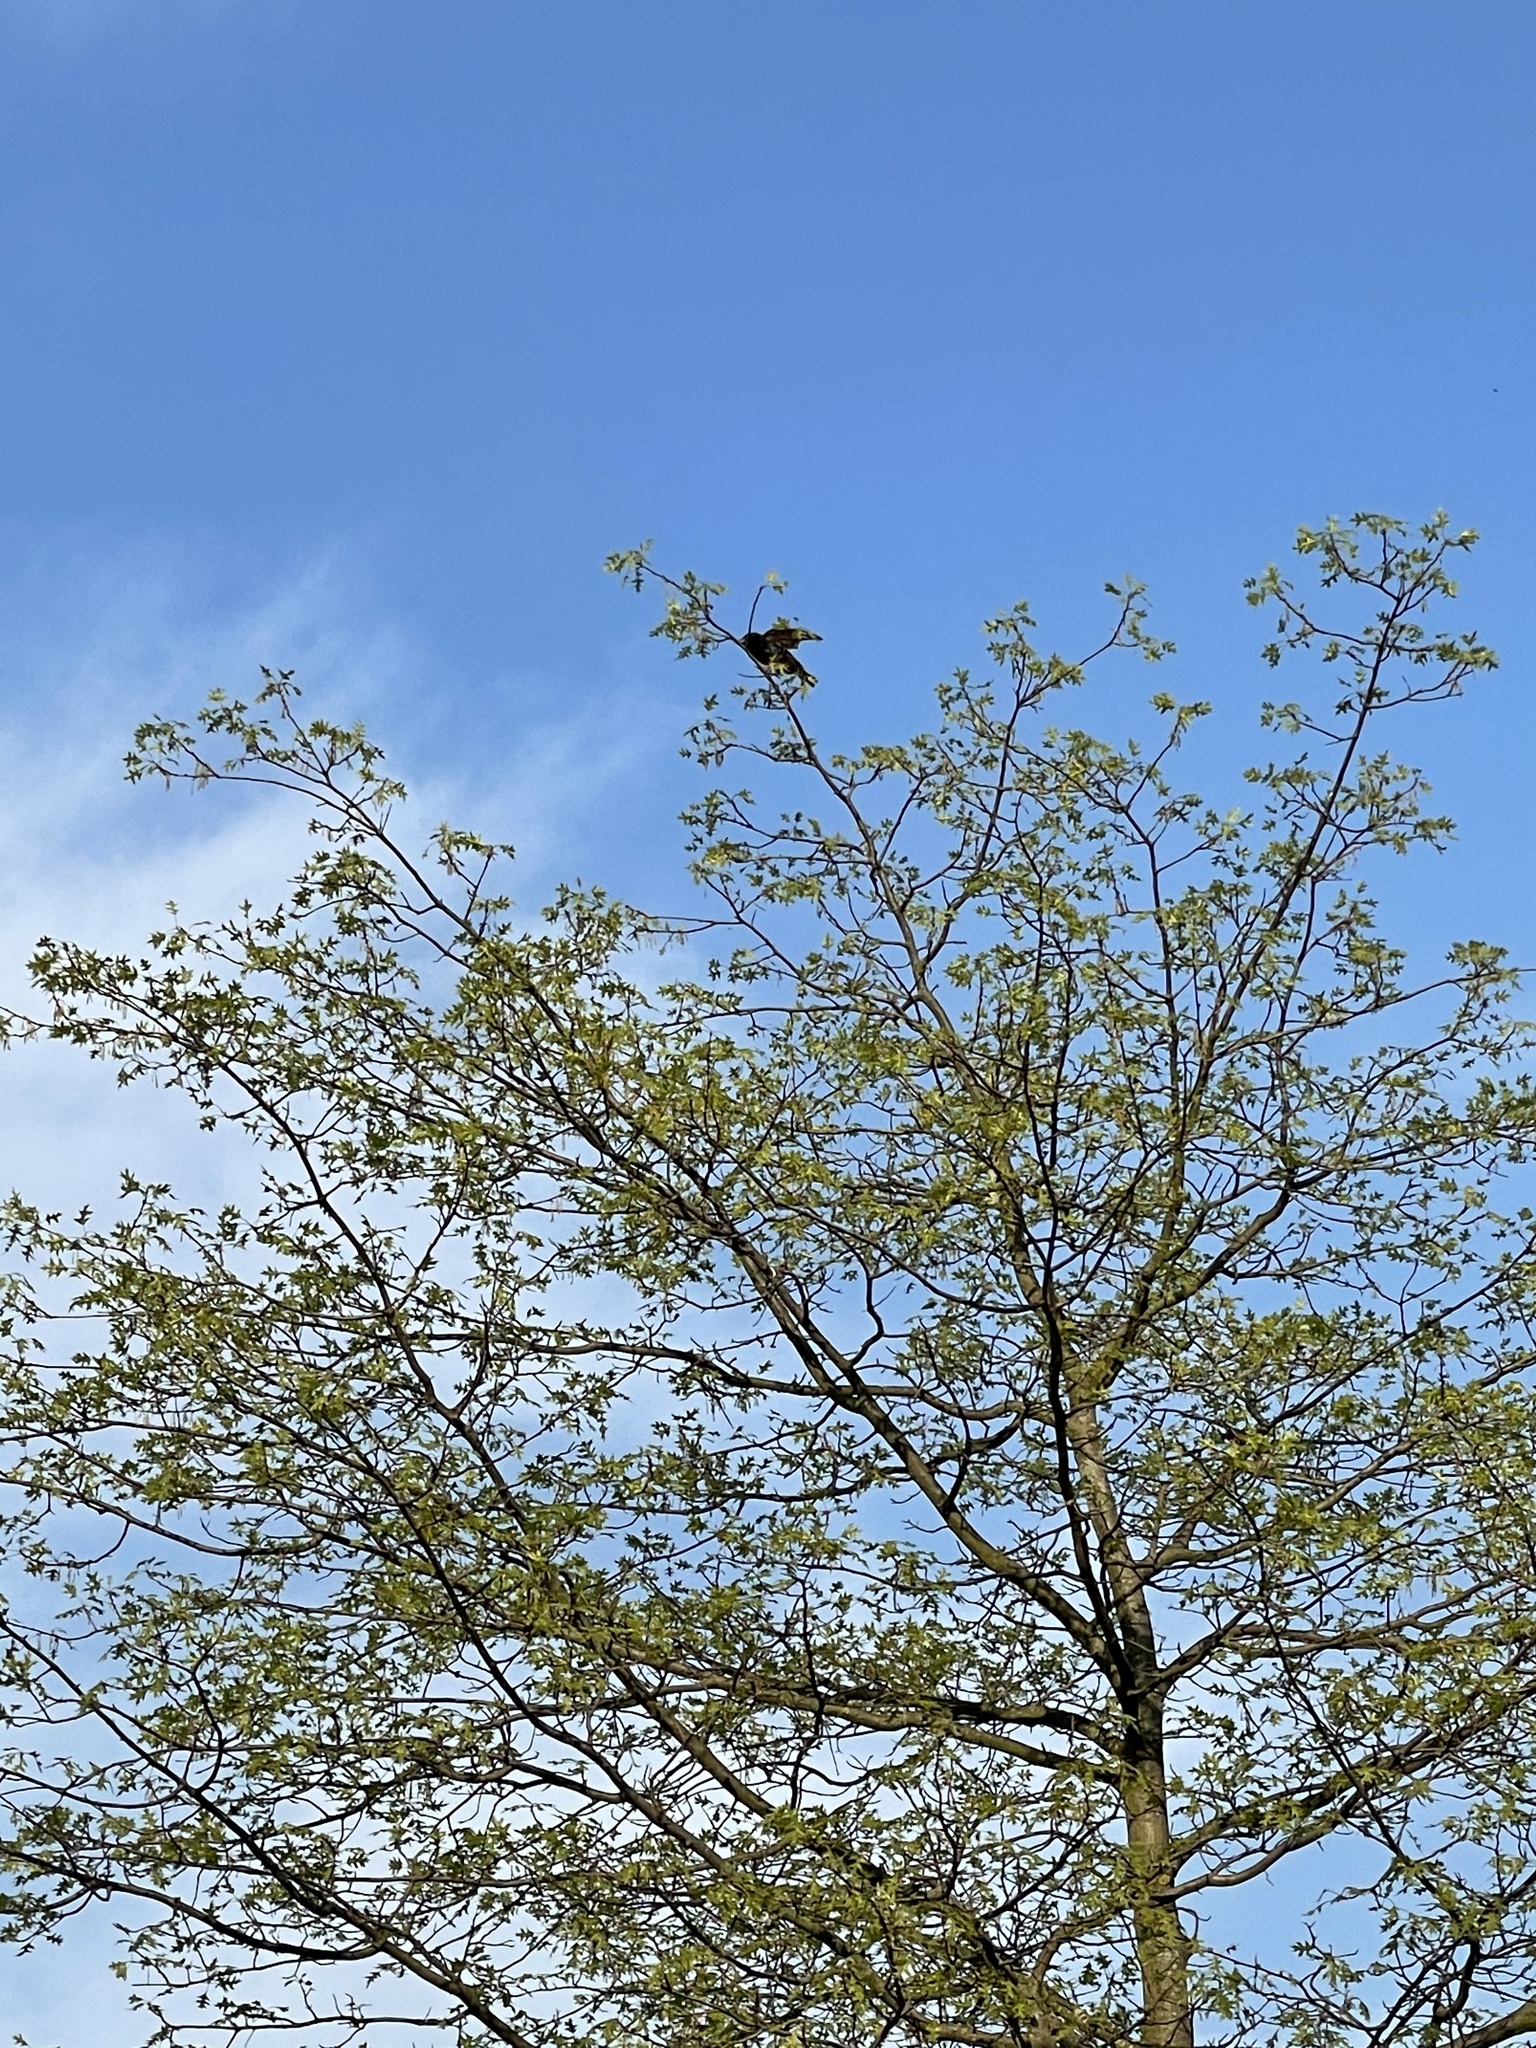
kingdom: Animalia
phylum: Chordata
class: Aves
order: Passeriformes
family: Sturnidae
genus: Sturnus
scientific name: Sturnus vulgaris
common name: Common starling
